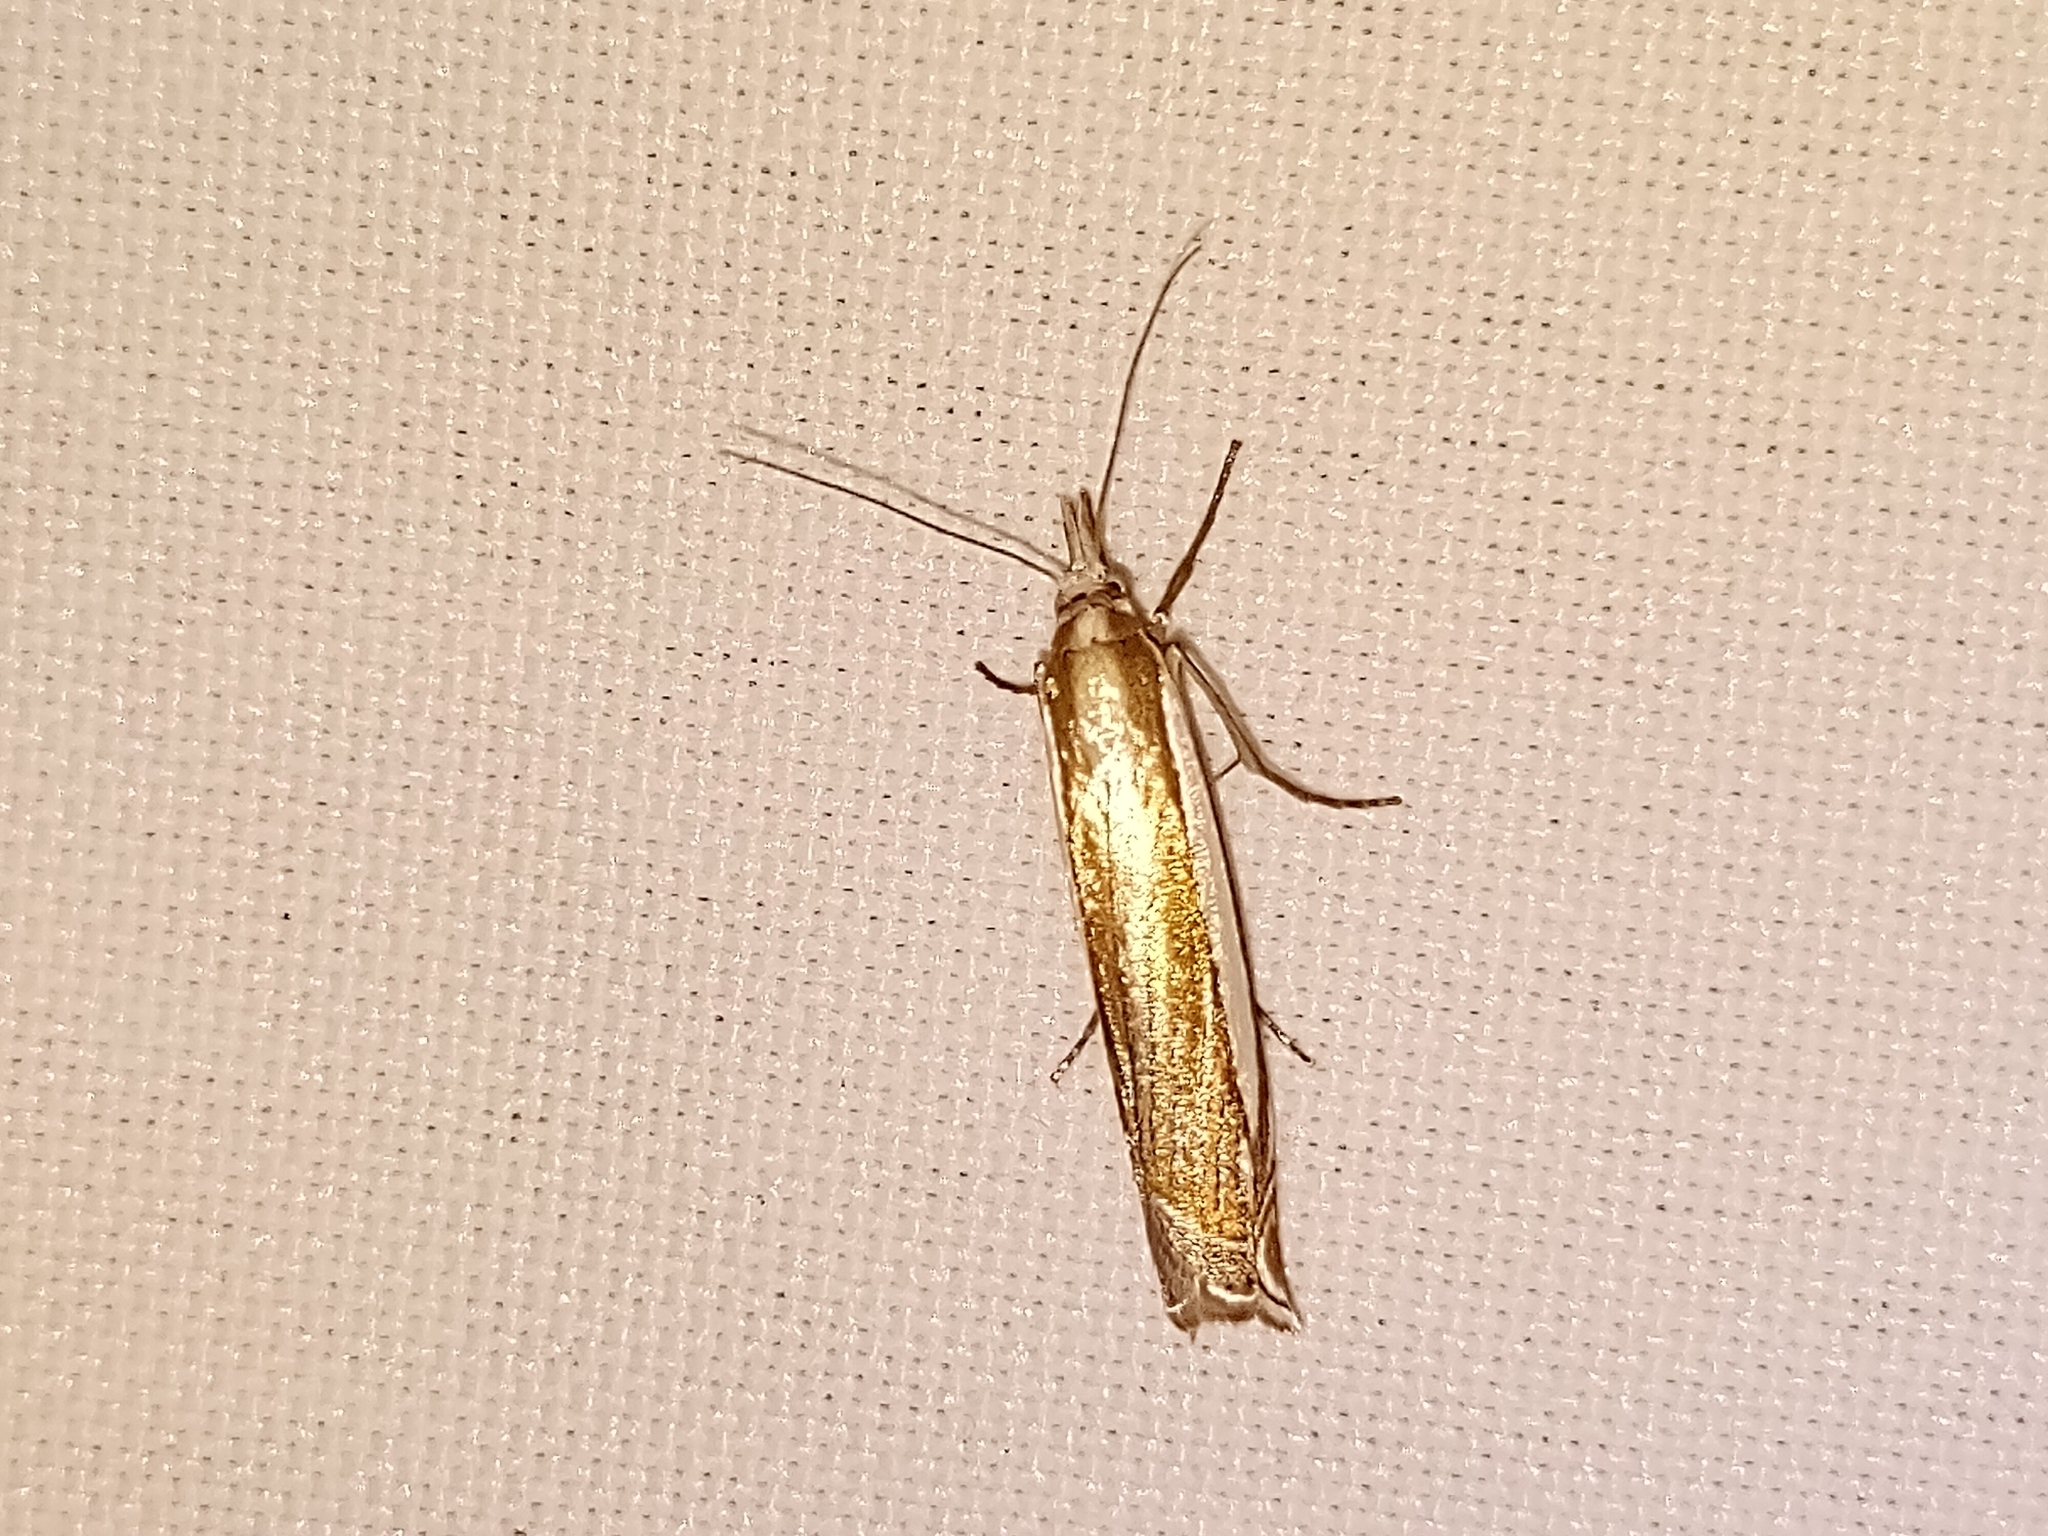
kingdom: Animalia
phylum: Arthropoda
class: Insecta
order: Lepidoptera
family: Crambidae
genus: Crambus
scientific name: Crambus pascuella
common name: Inlaid grass-veneer
